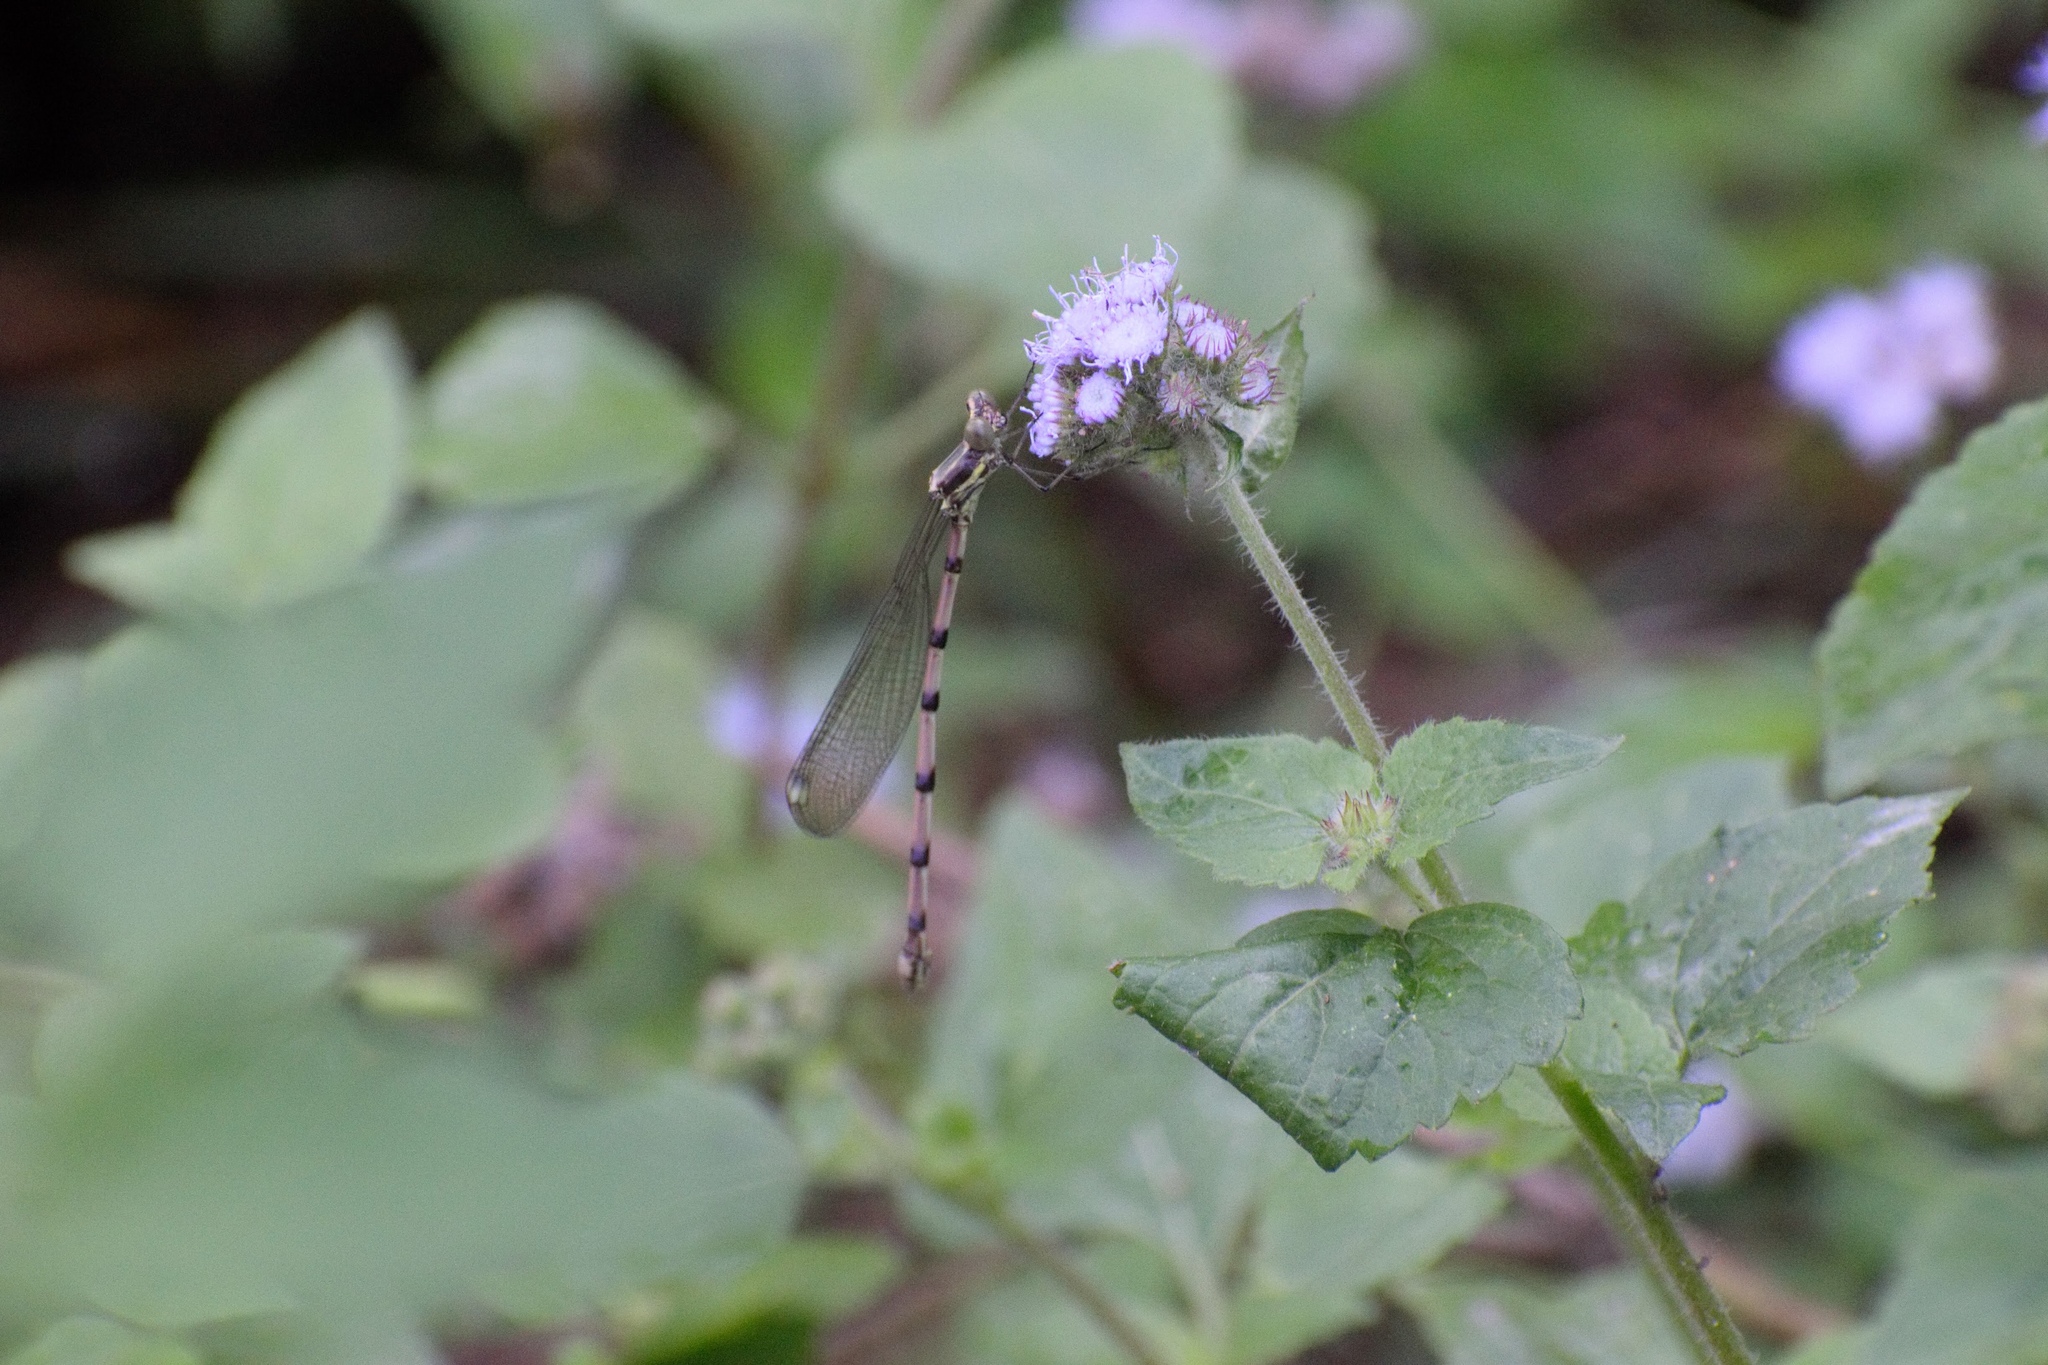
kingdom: Animalia
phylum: Arthropoda
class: Insecta
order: Odonata
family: Synlestidae
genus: Chlorolestes
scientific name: Chlorolestes tessellatus
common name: Forest malachite
